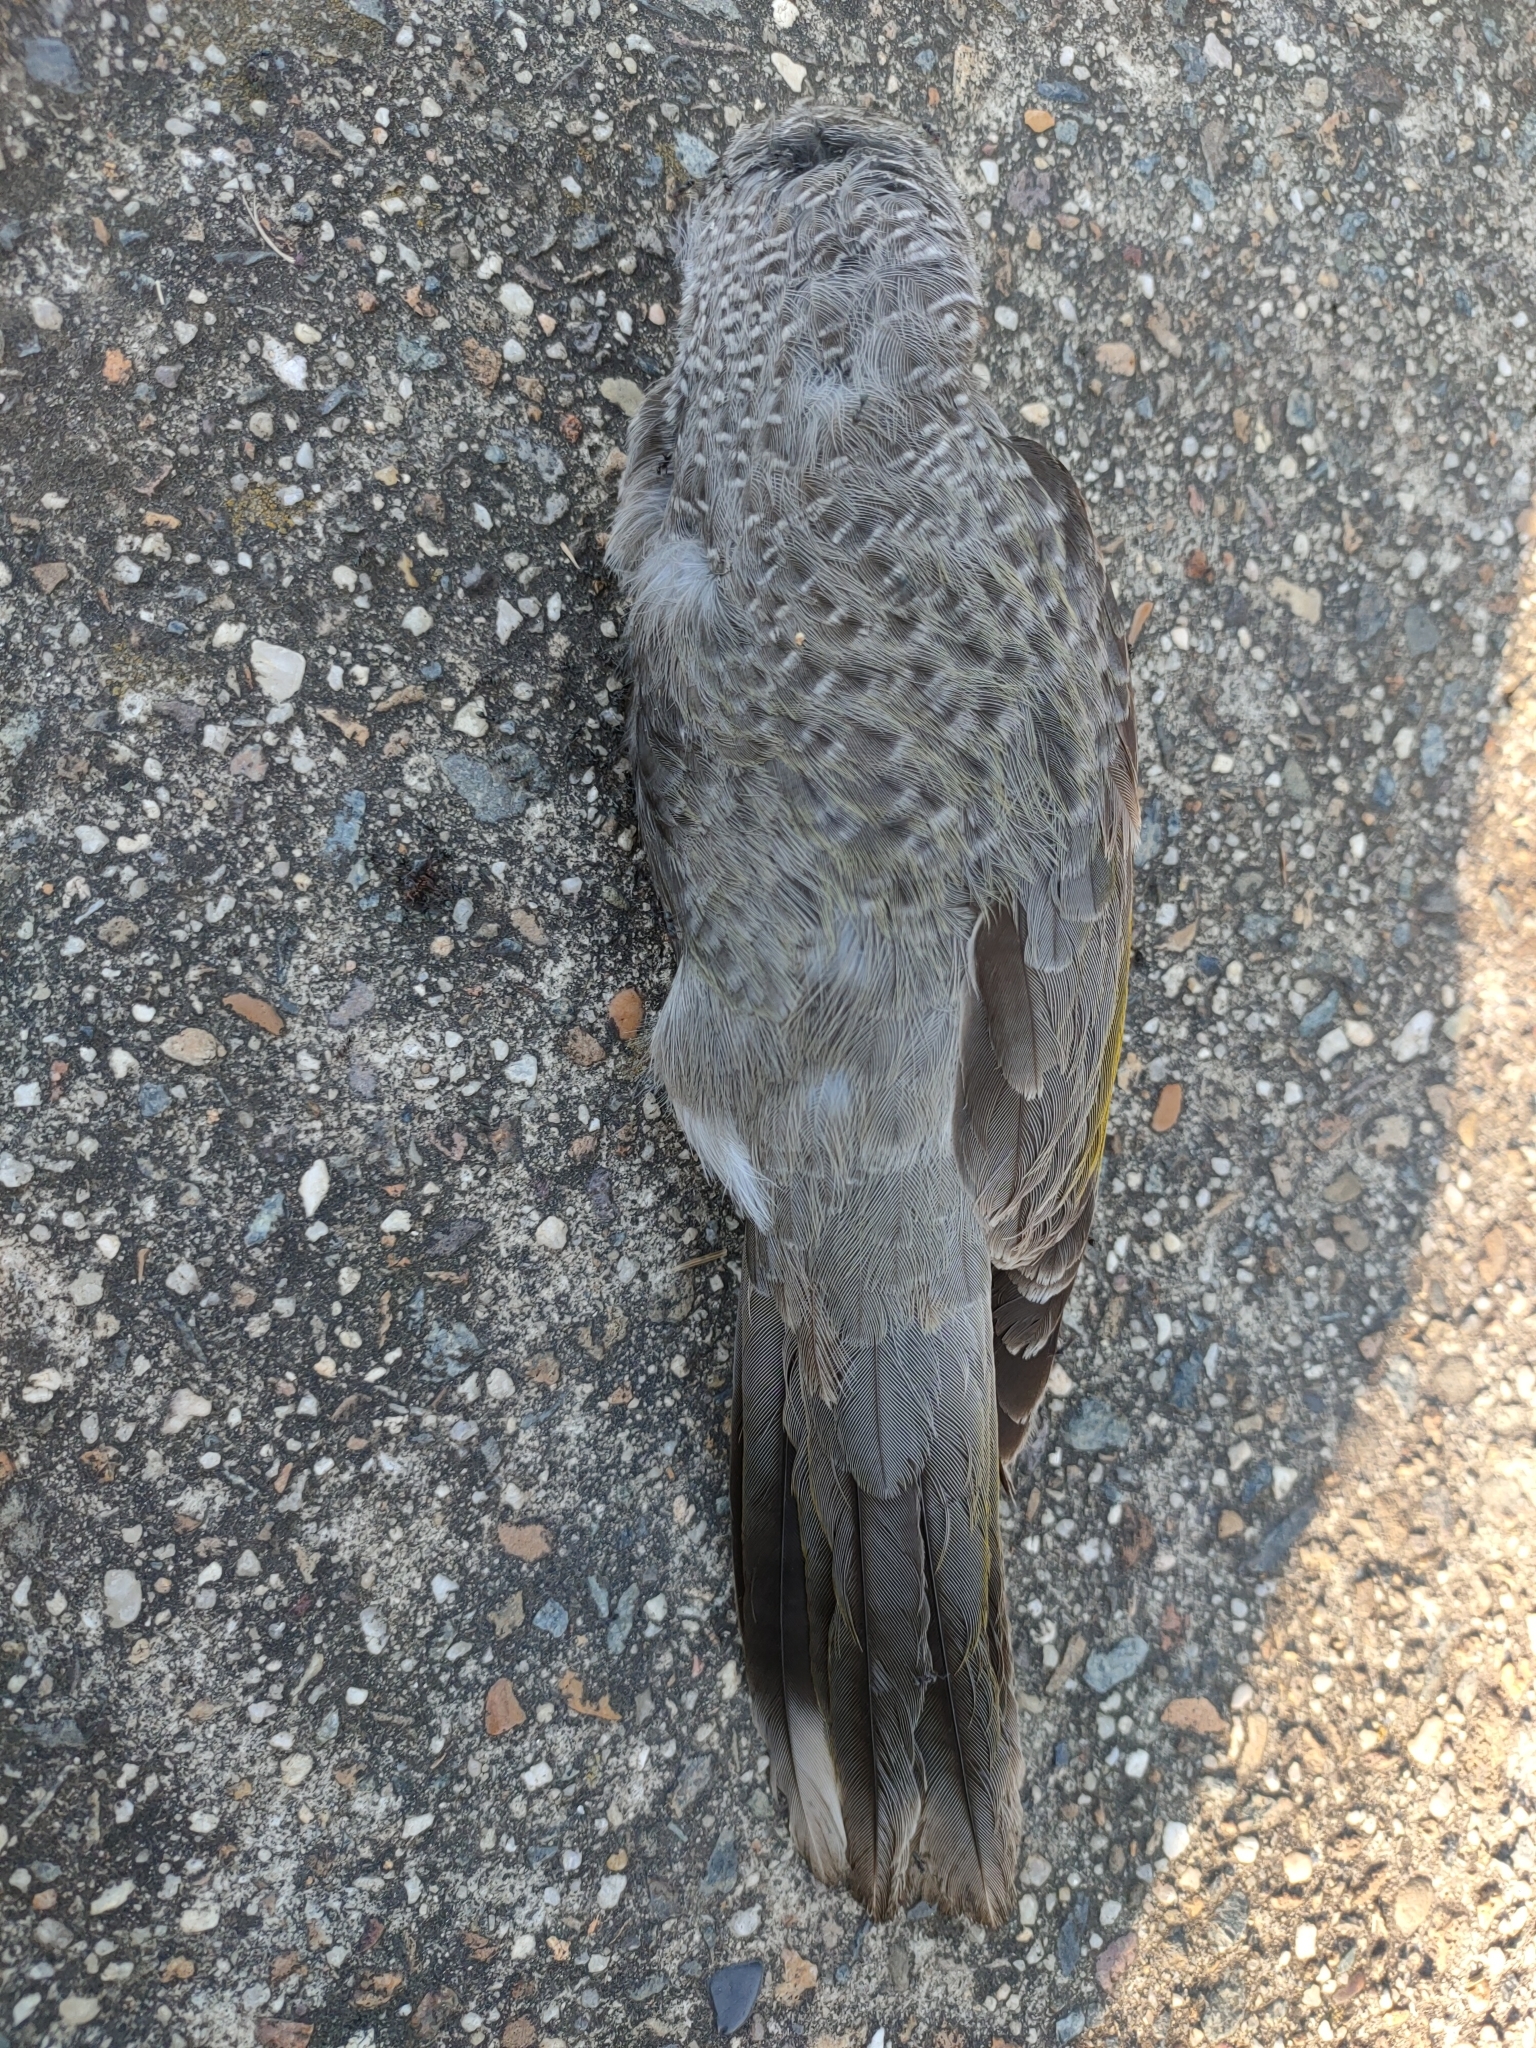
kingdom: Animalia
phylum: Chordata
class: Aves
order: Passeriformes
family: Meliphagidae
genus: Manorina
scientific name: Manorina melanocephala
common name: Noisy miner
